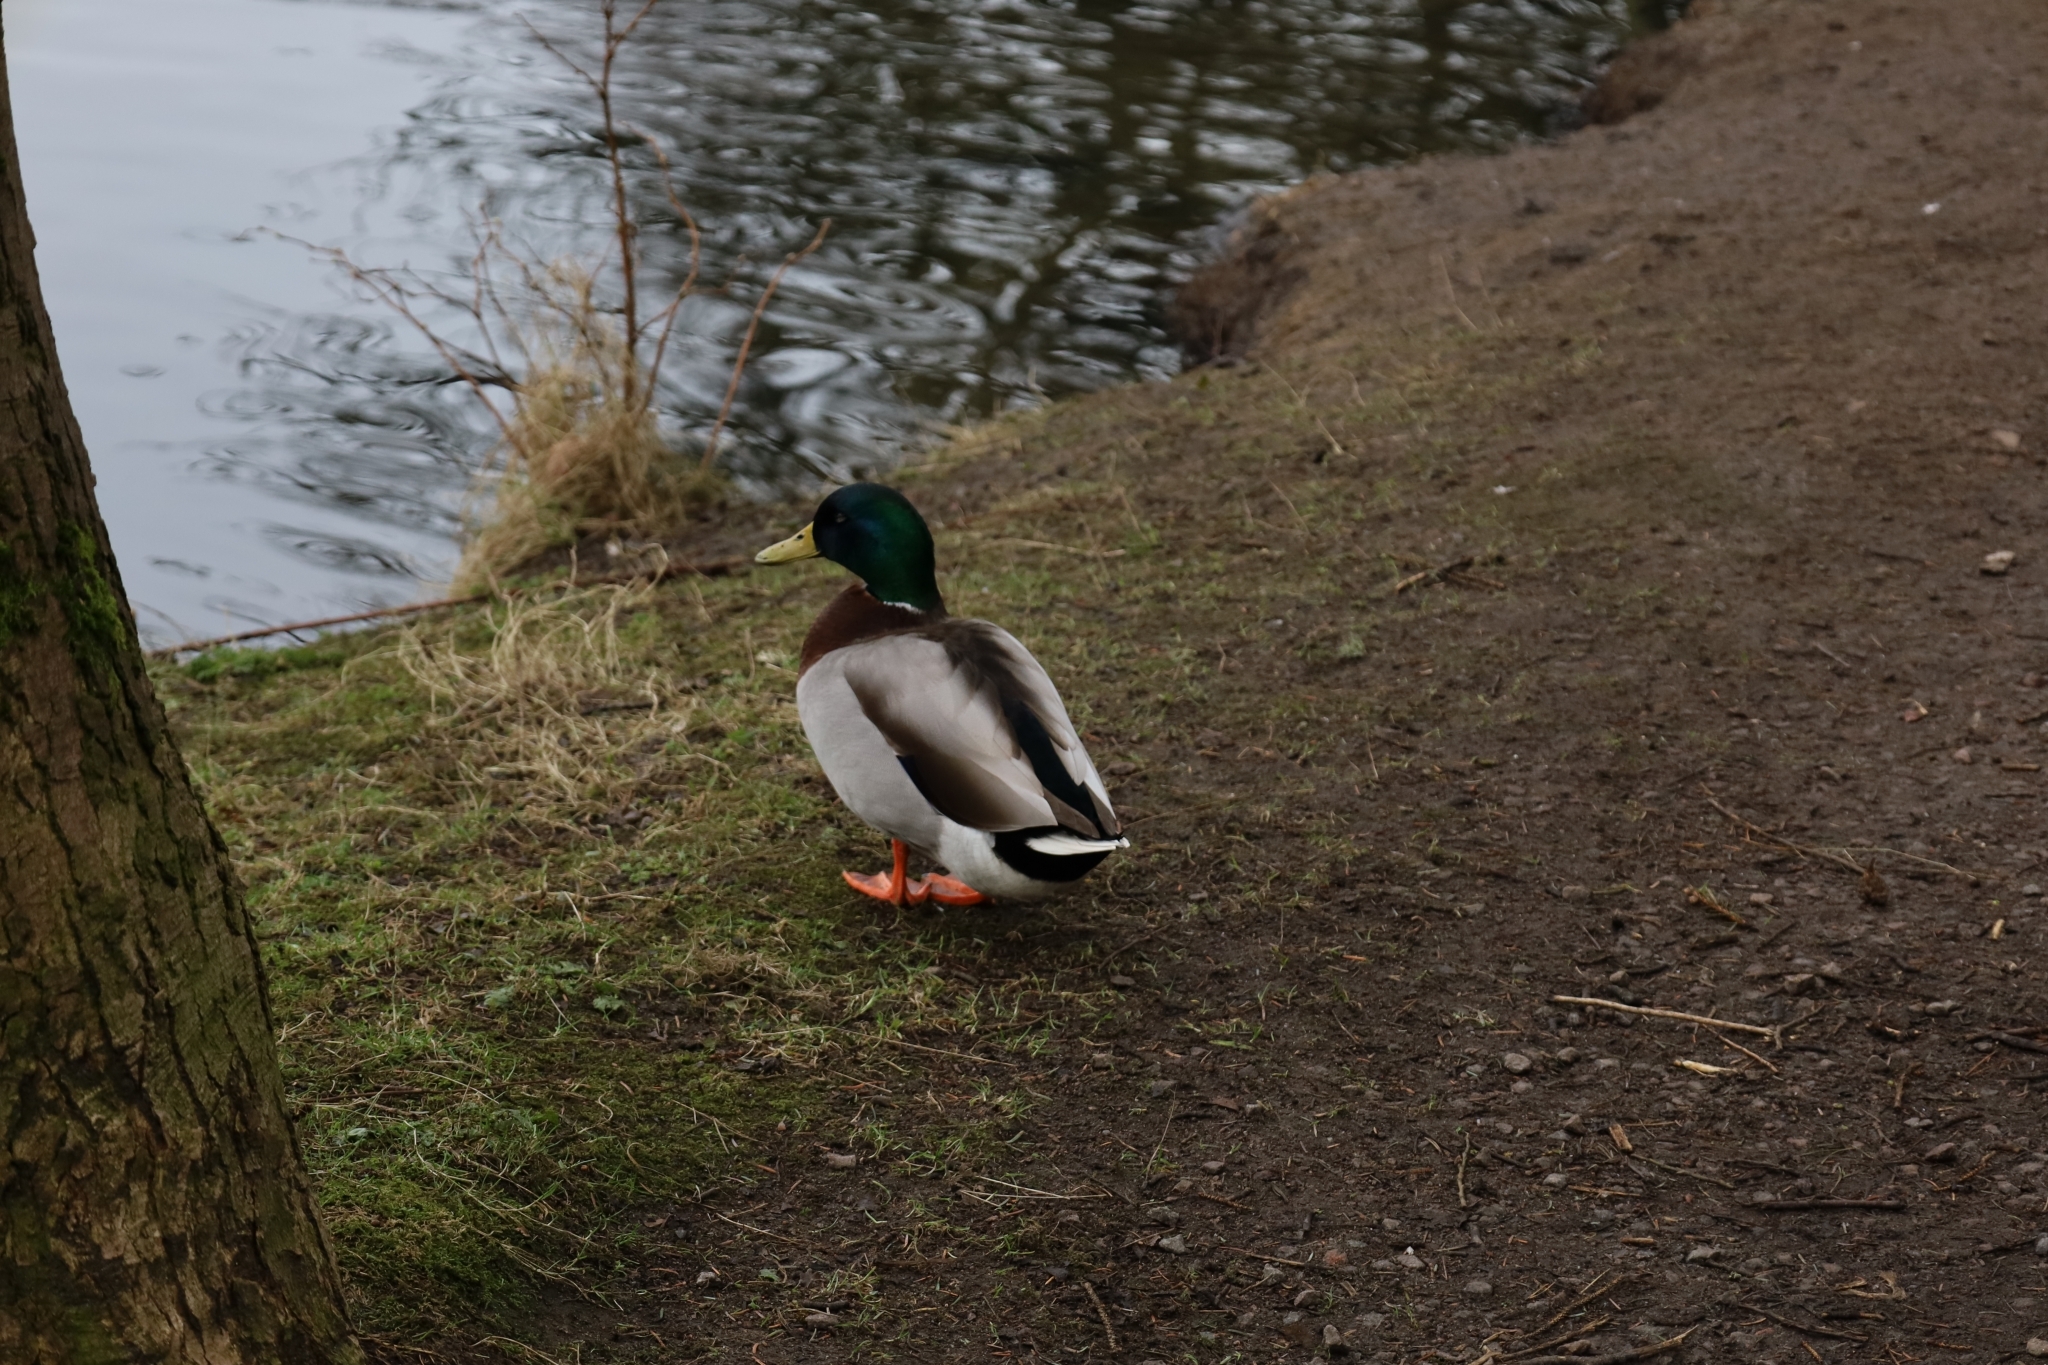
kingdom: Animalia
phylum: Chordata
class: Aves
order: Anseriformes
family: Anatidae
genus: Anas
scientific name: Anas platyrhynchos
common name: Mallard
